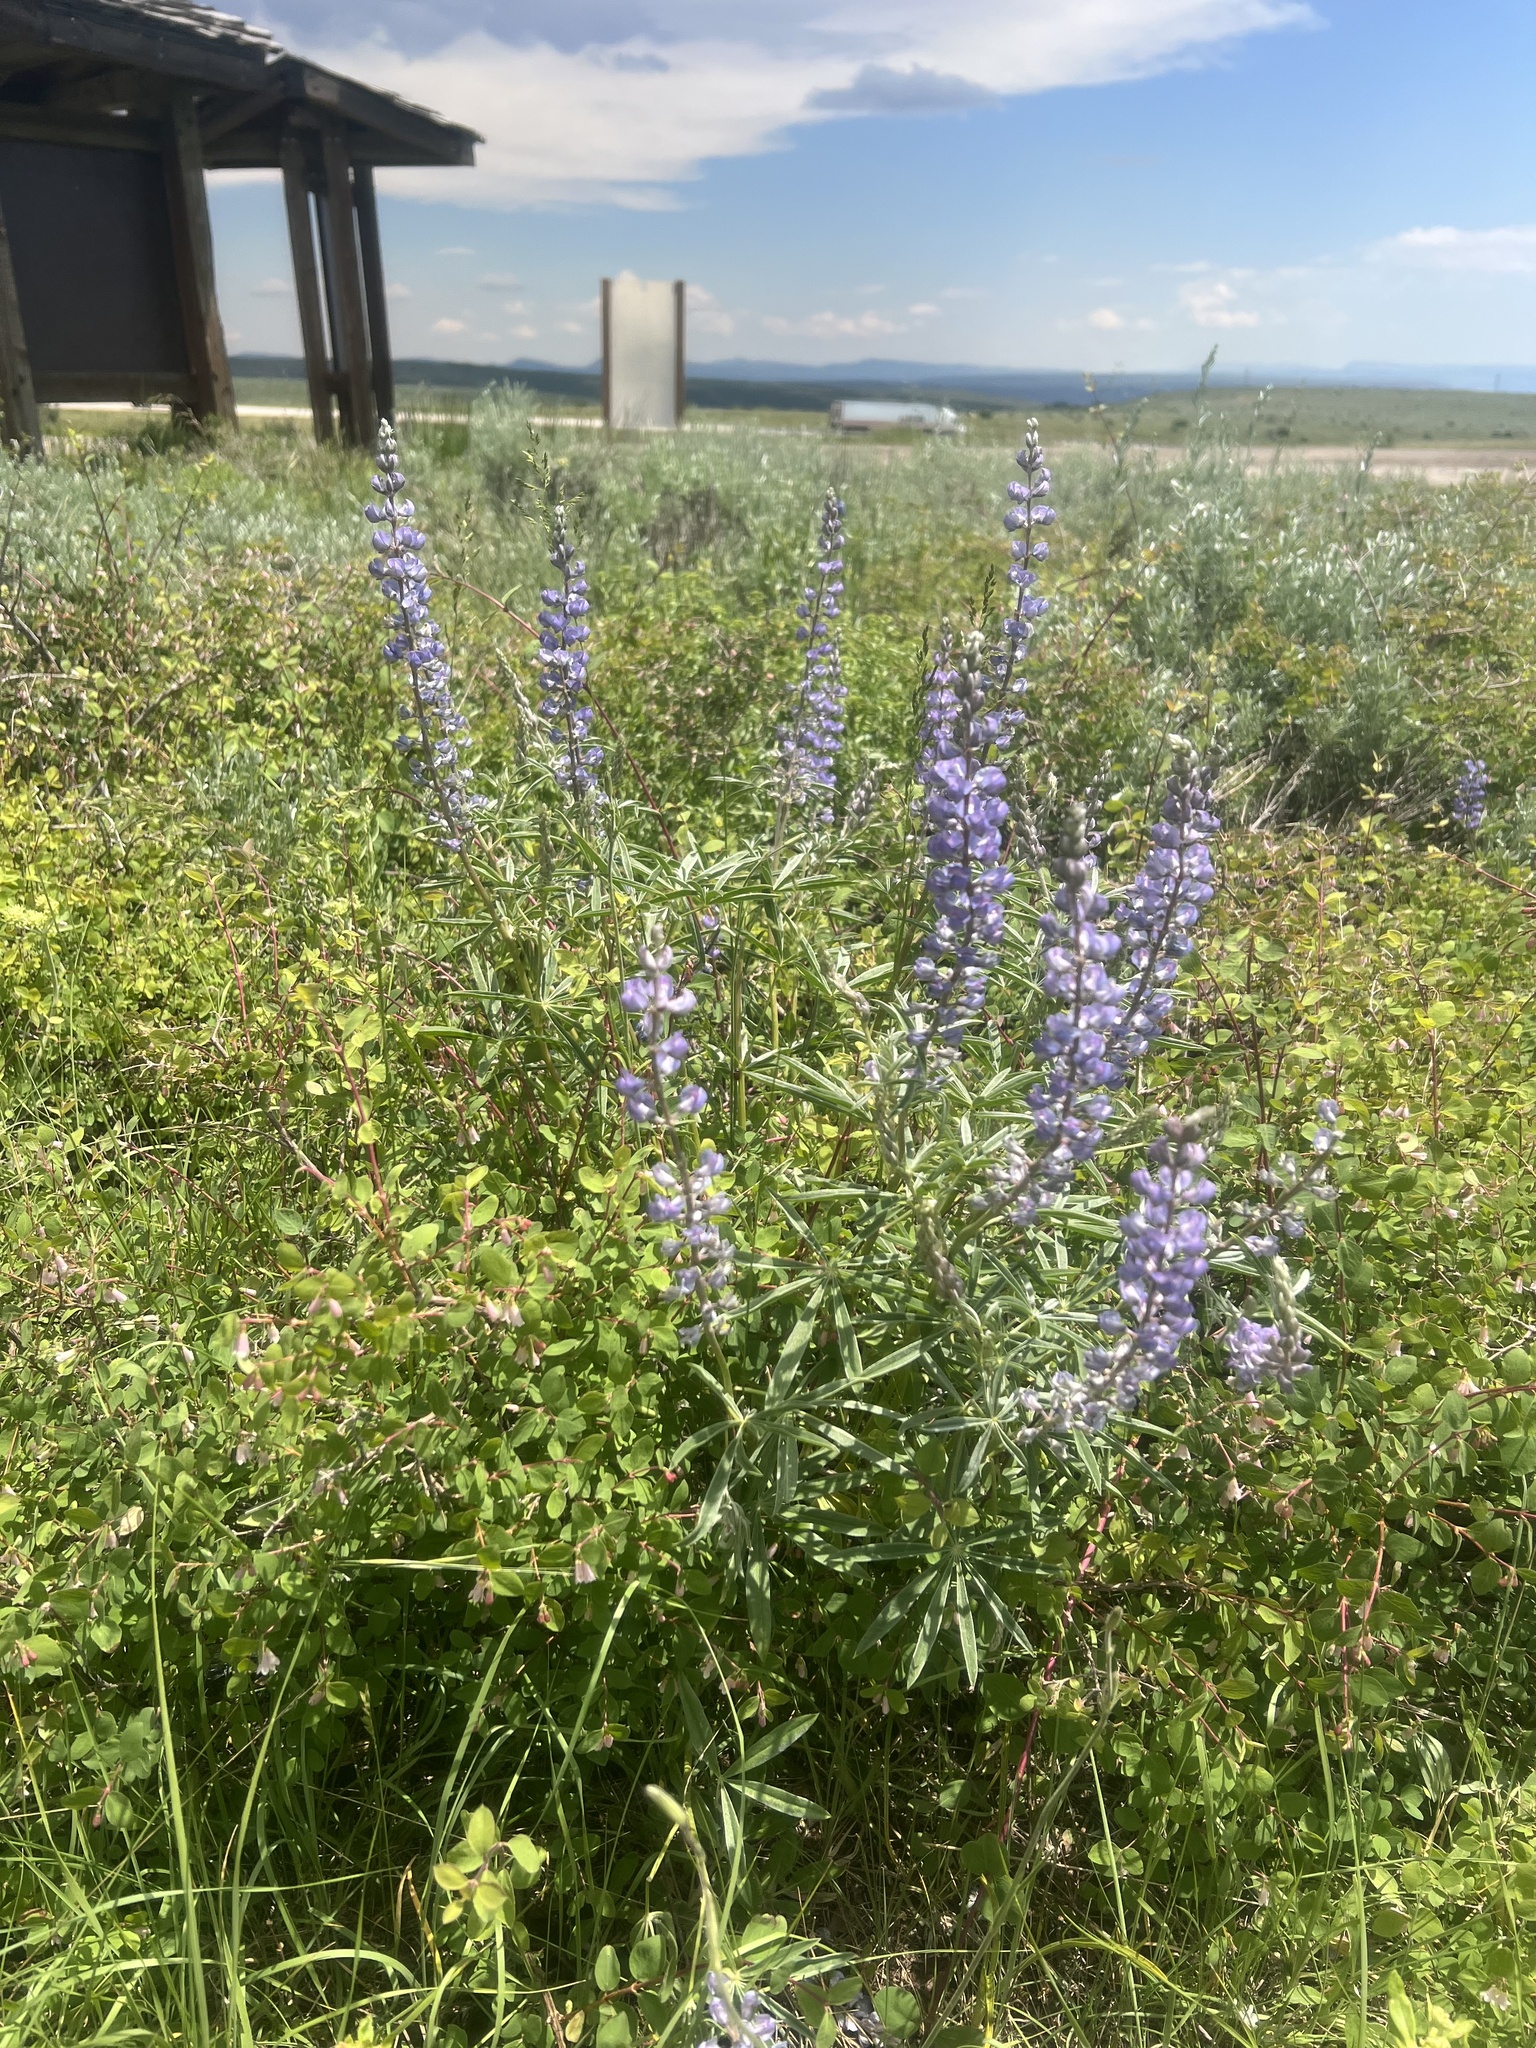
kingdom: Plantae
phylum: Tracheophyta
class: Magnoliopsida
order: Fabales
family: Fabaceae
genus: Lupinus
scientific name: Lupinus argenteus
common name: Silvery lupine
